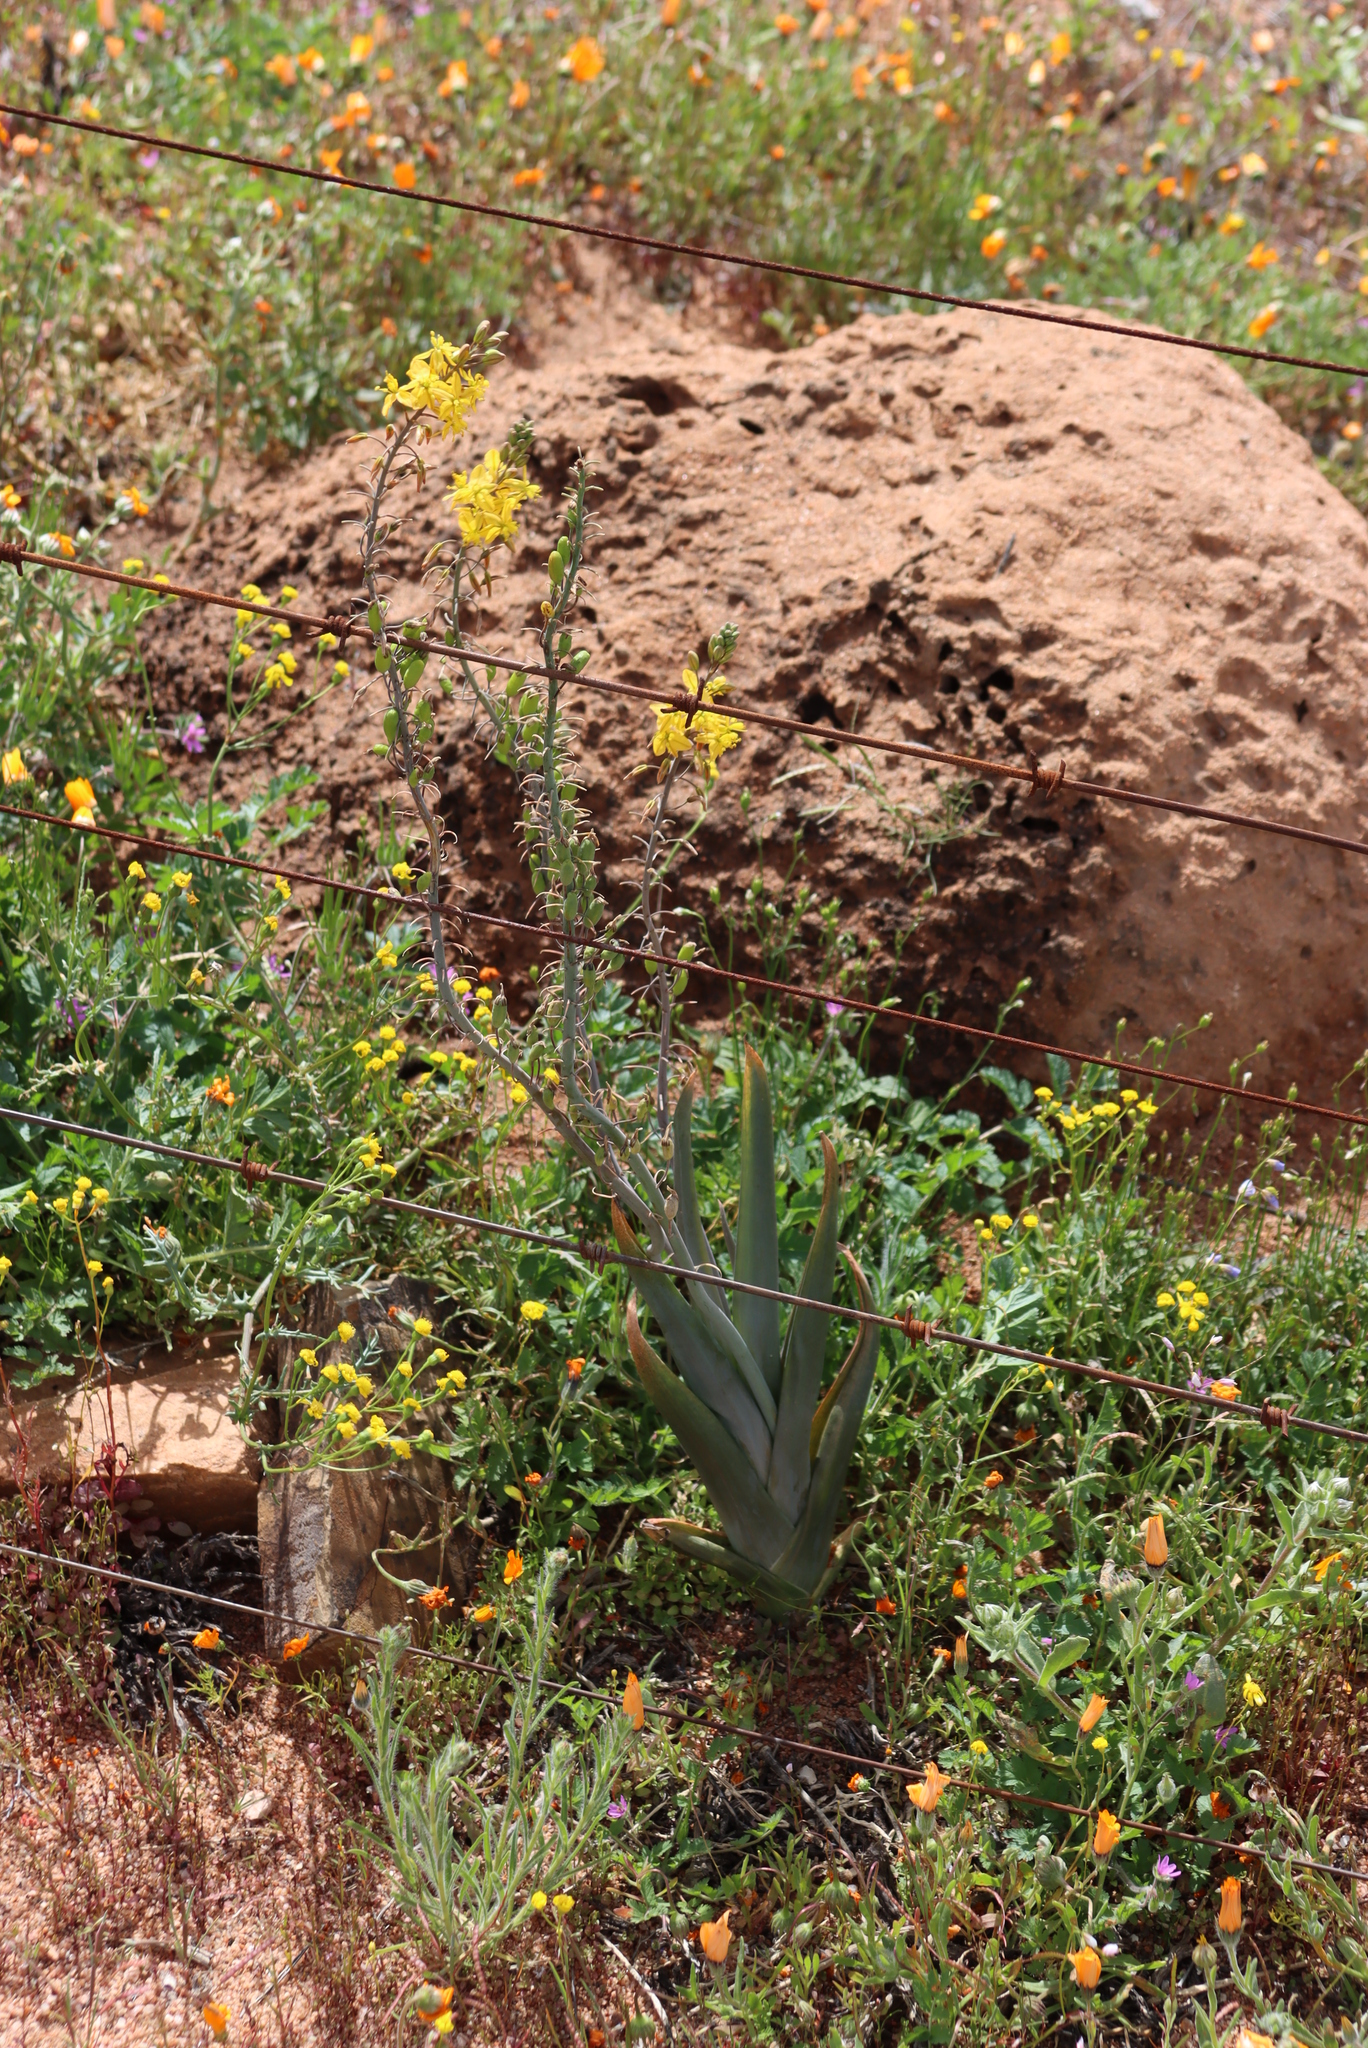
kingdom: Plantae
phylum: Tracheophyta
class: Liliopsida
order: Asparagales
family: Asphodelaceae
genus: Bulbine
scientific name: Bulbine praemorsa
